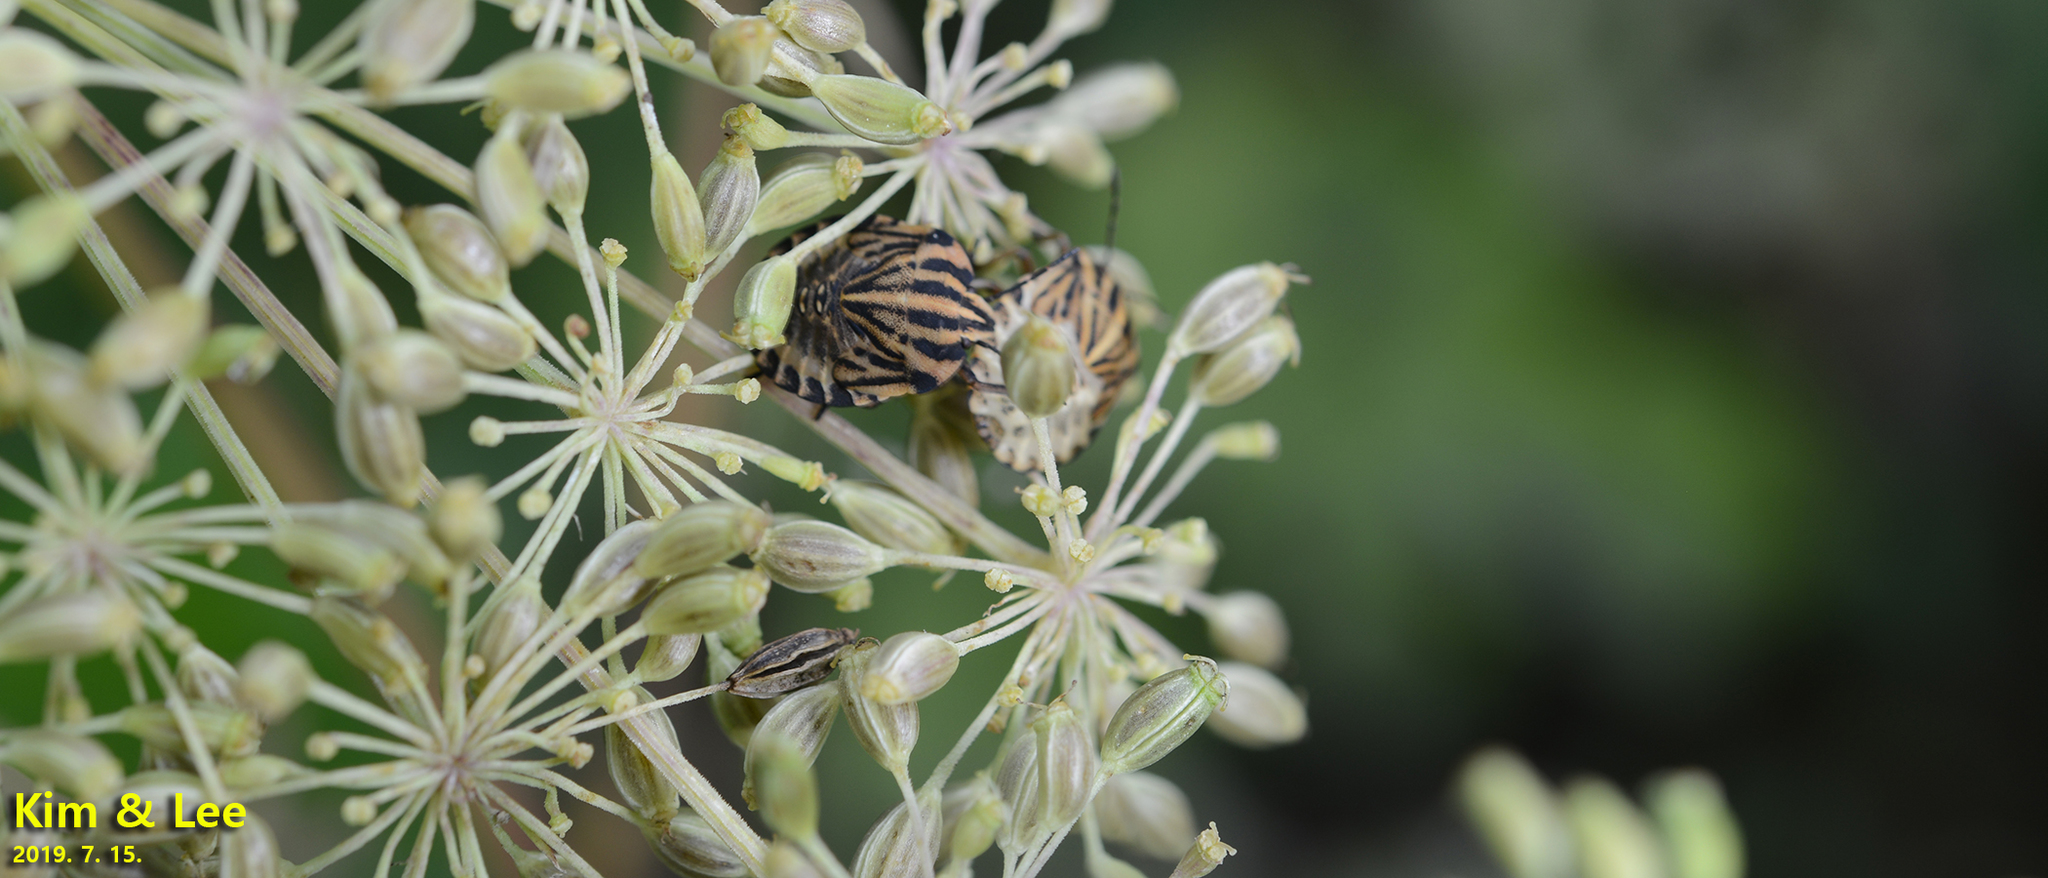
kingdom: Animalia
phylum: Arthropoda
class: Insecta
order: Hemiptera
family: Pentatomidae
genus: Graphosoma
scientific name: Graphosoma rubrolineatum
